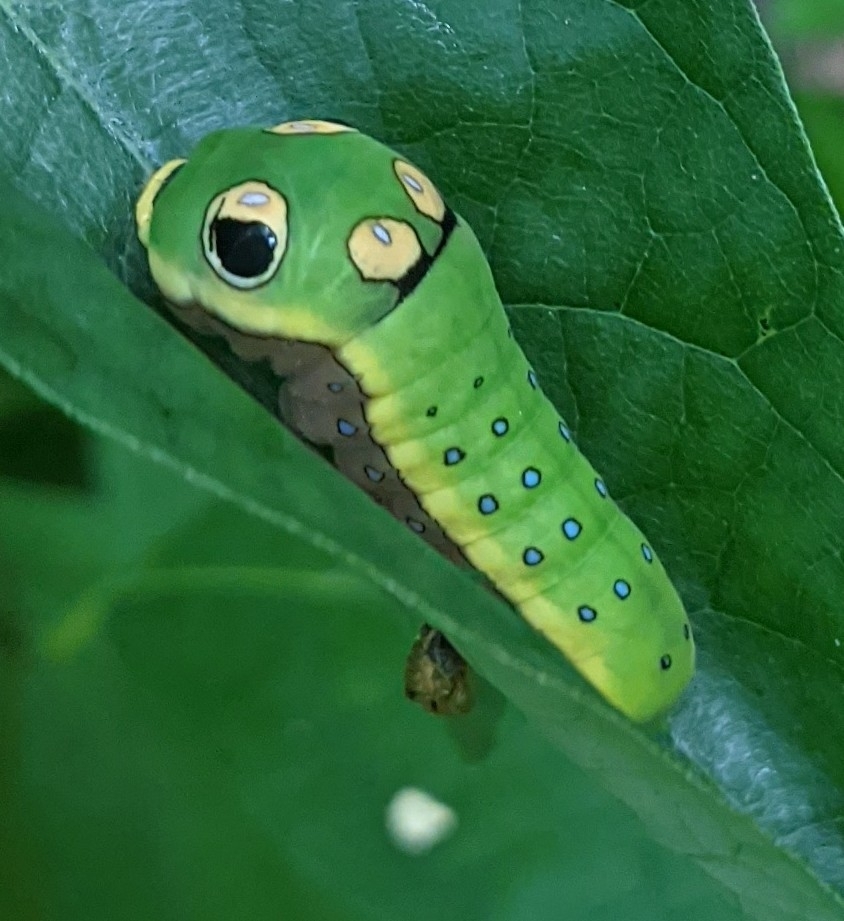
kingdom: Animalia
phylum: Arthropoda
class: Insecta
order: Lepidoptera
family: Papilionidae
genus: Papilio
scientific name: Papilio troilus
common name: Spicebush swallowtail
